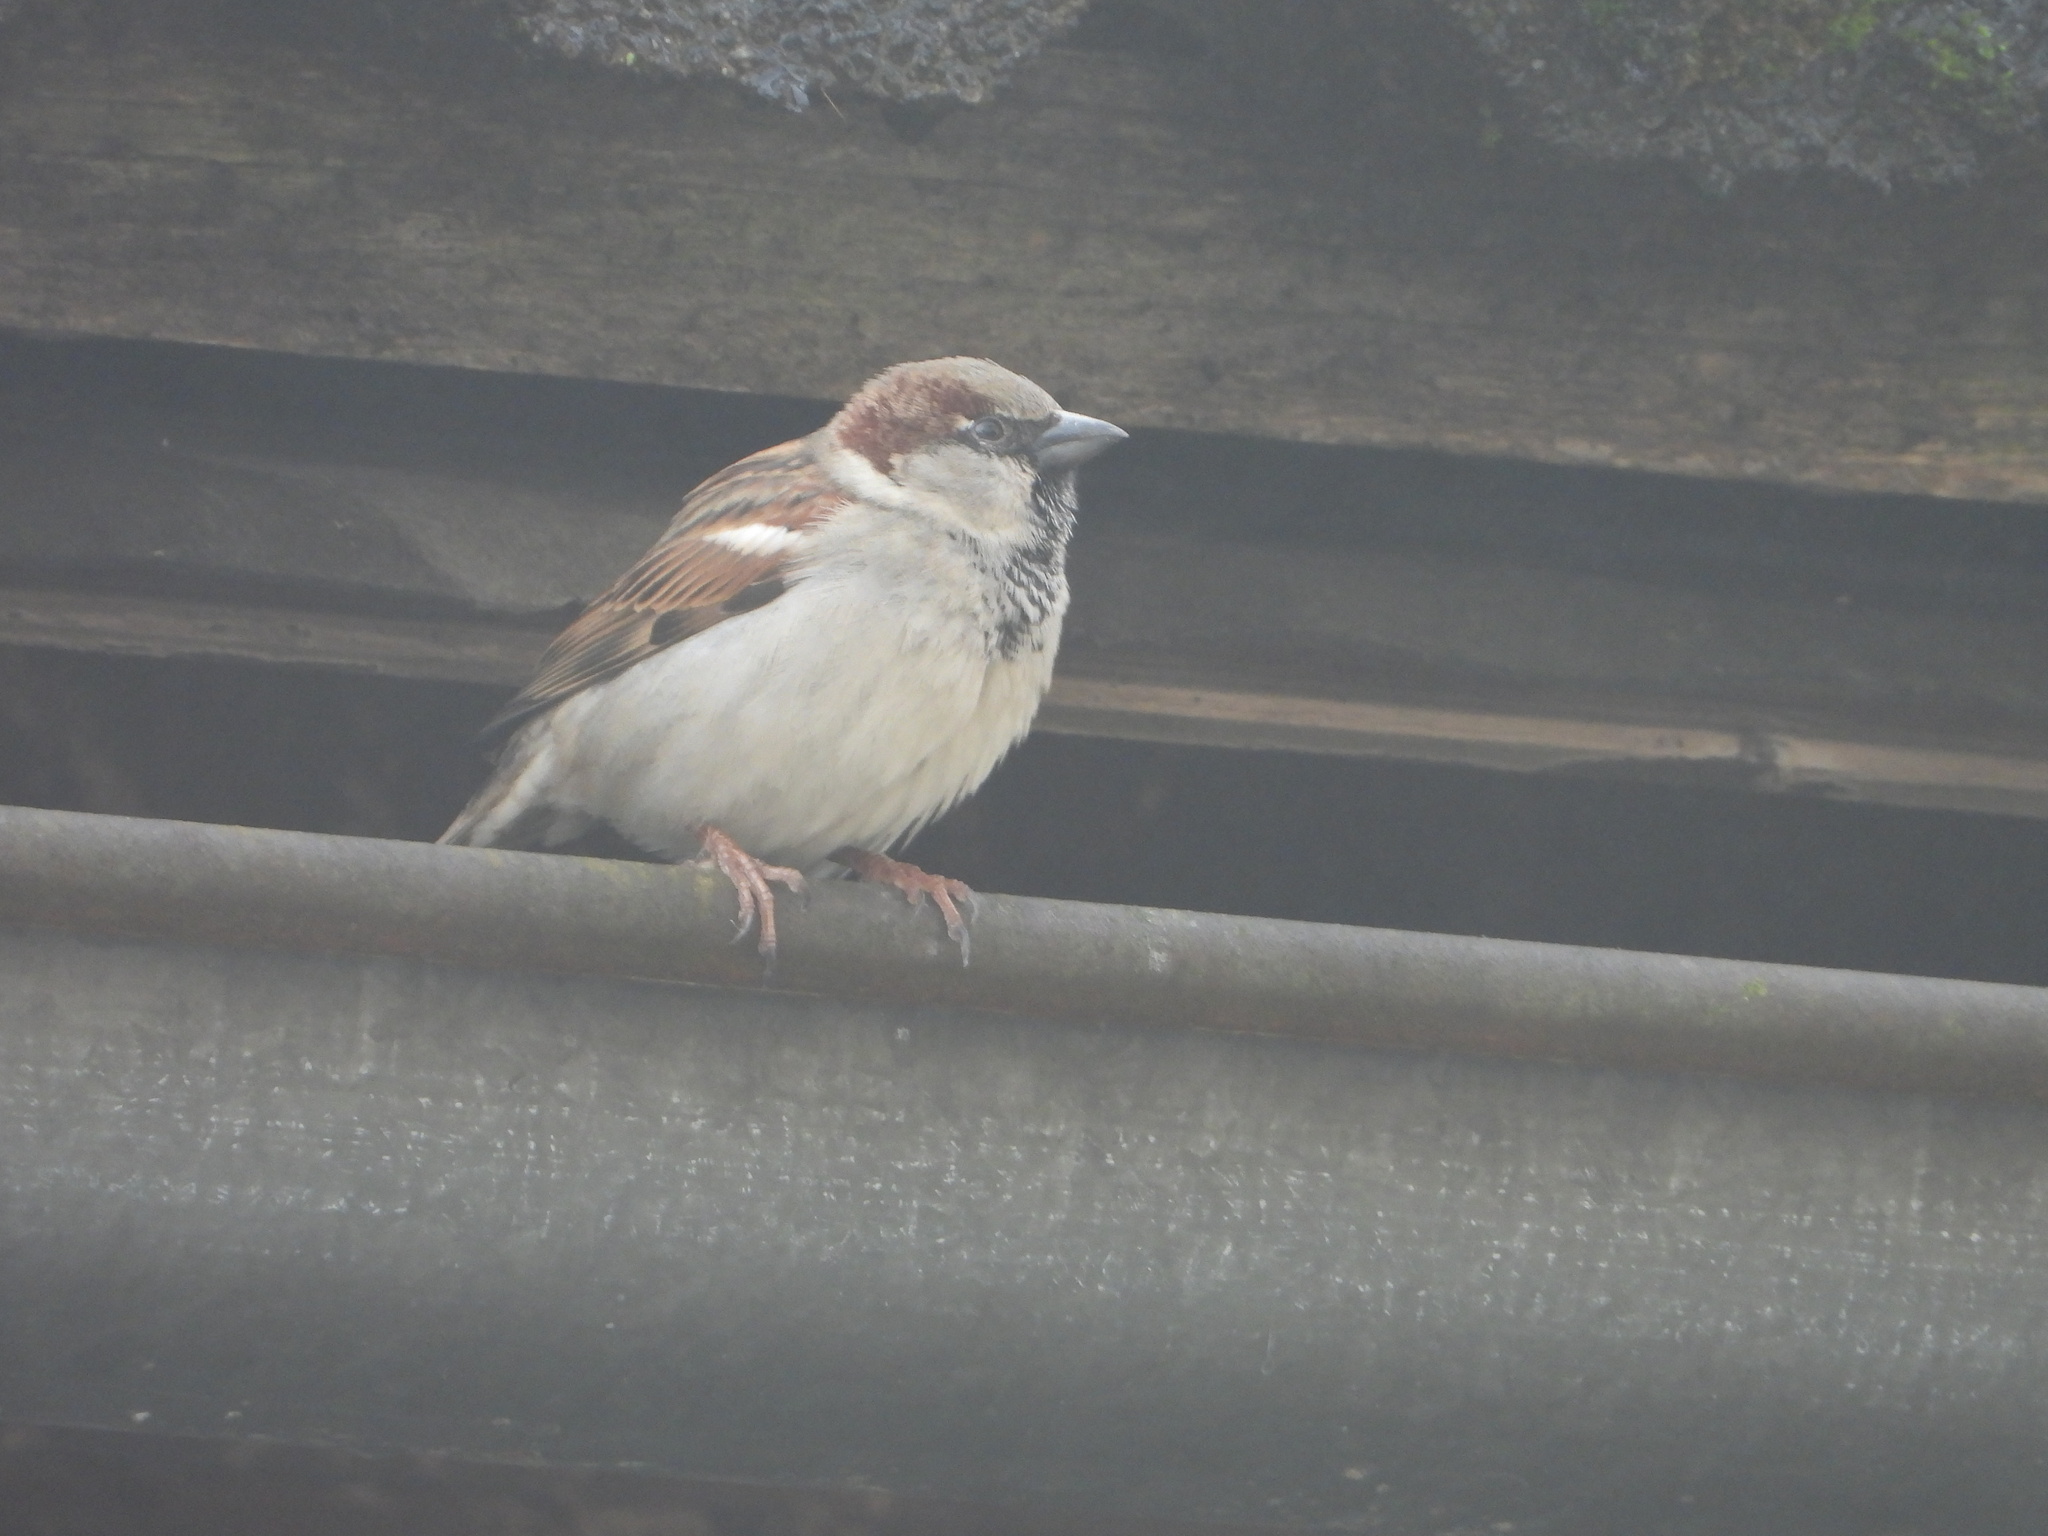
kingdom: Animalia
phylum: Chordata
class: Aves
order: Passeriformes
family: Passeridae
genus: Passer
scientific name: Passer domesticus
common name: House sparrow
